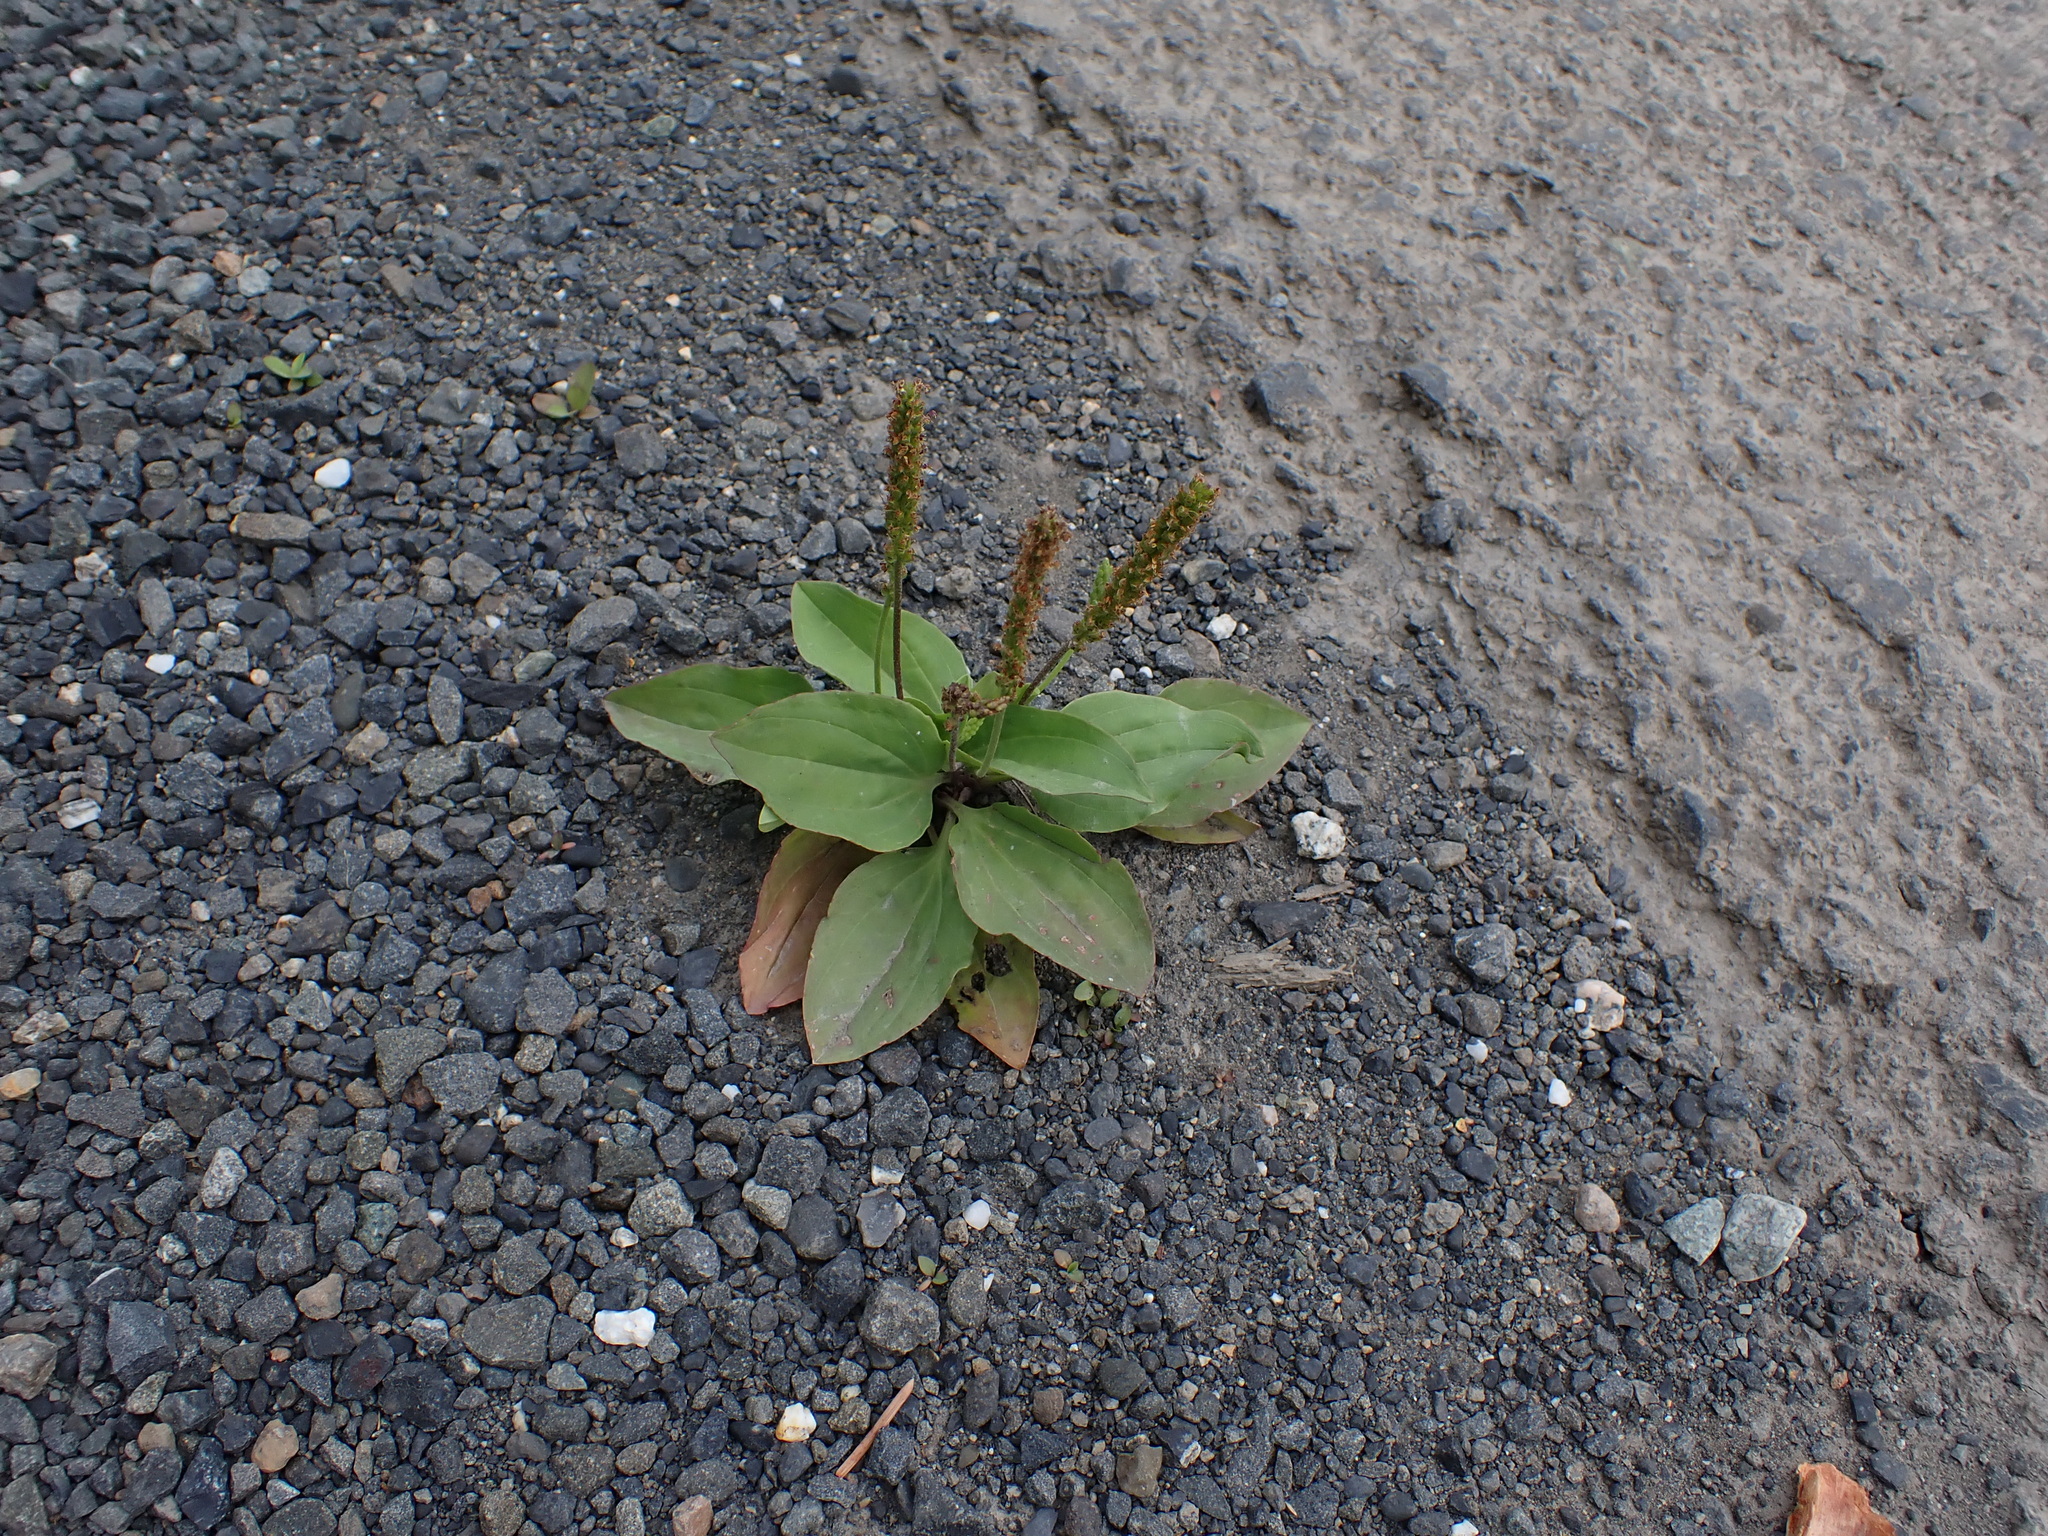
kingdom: Plantae
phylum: Tracheophyta
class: Magnoliopsida
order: Lamiales
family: Plantaginaceae
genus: Plantago
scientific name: Plantago major
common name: Common plantain
